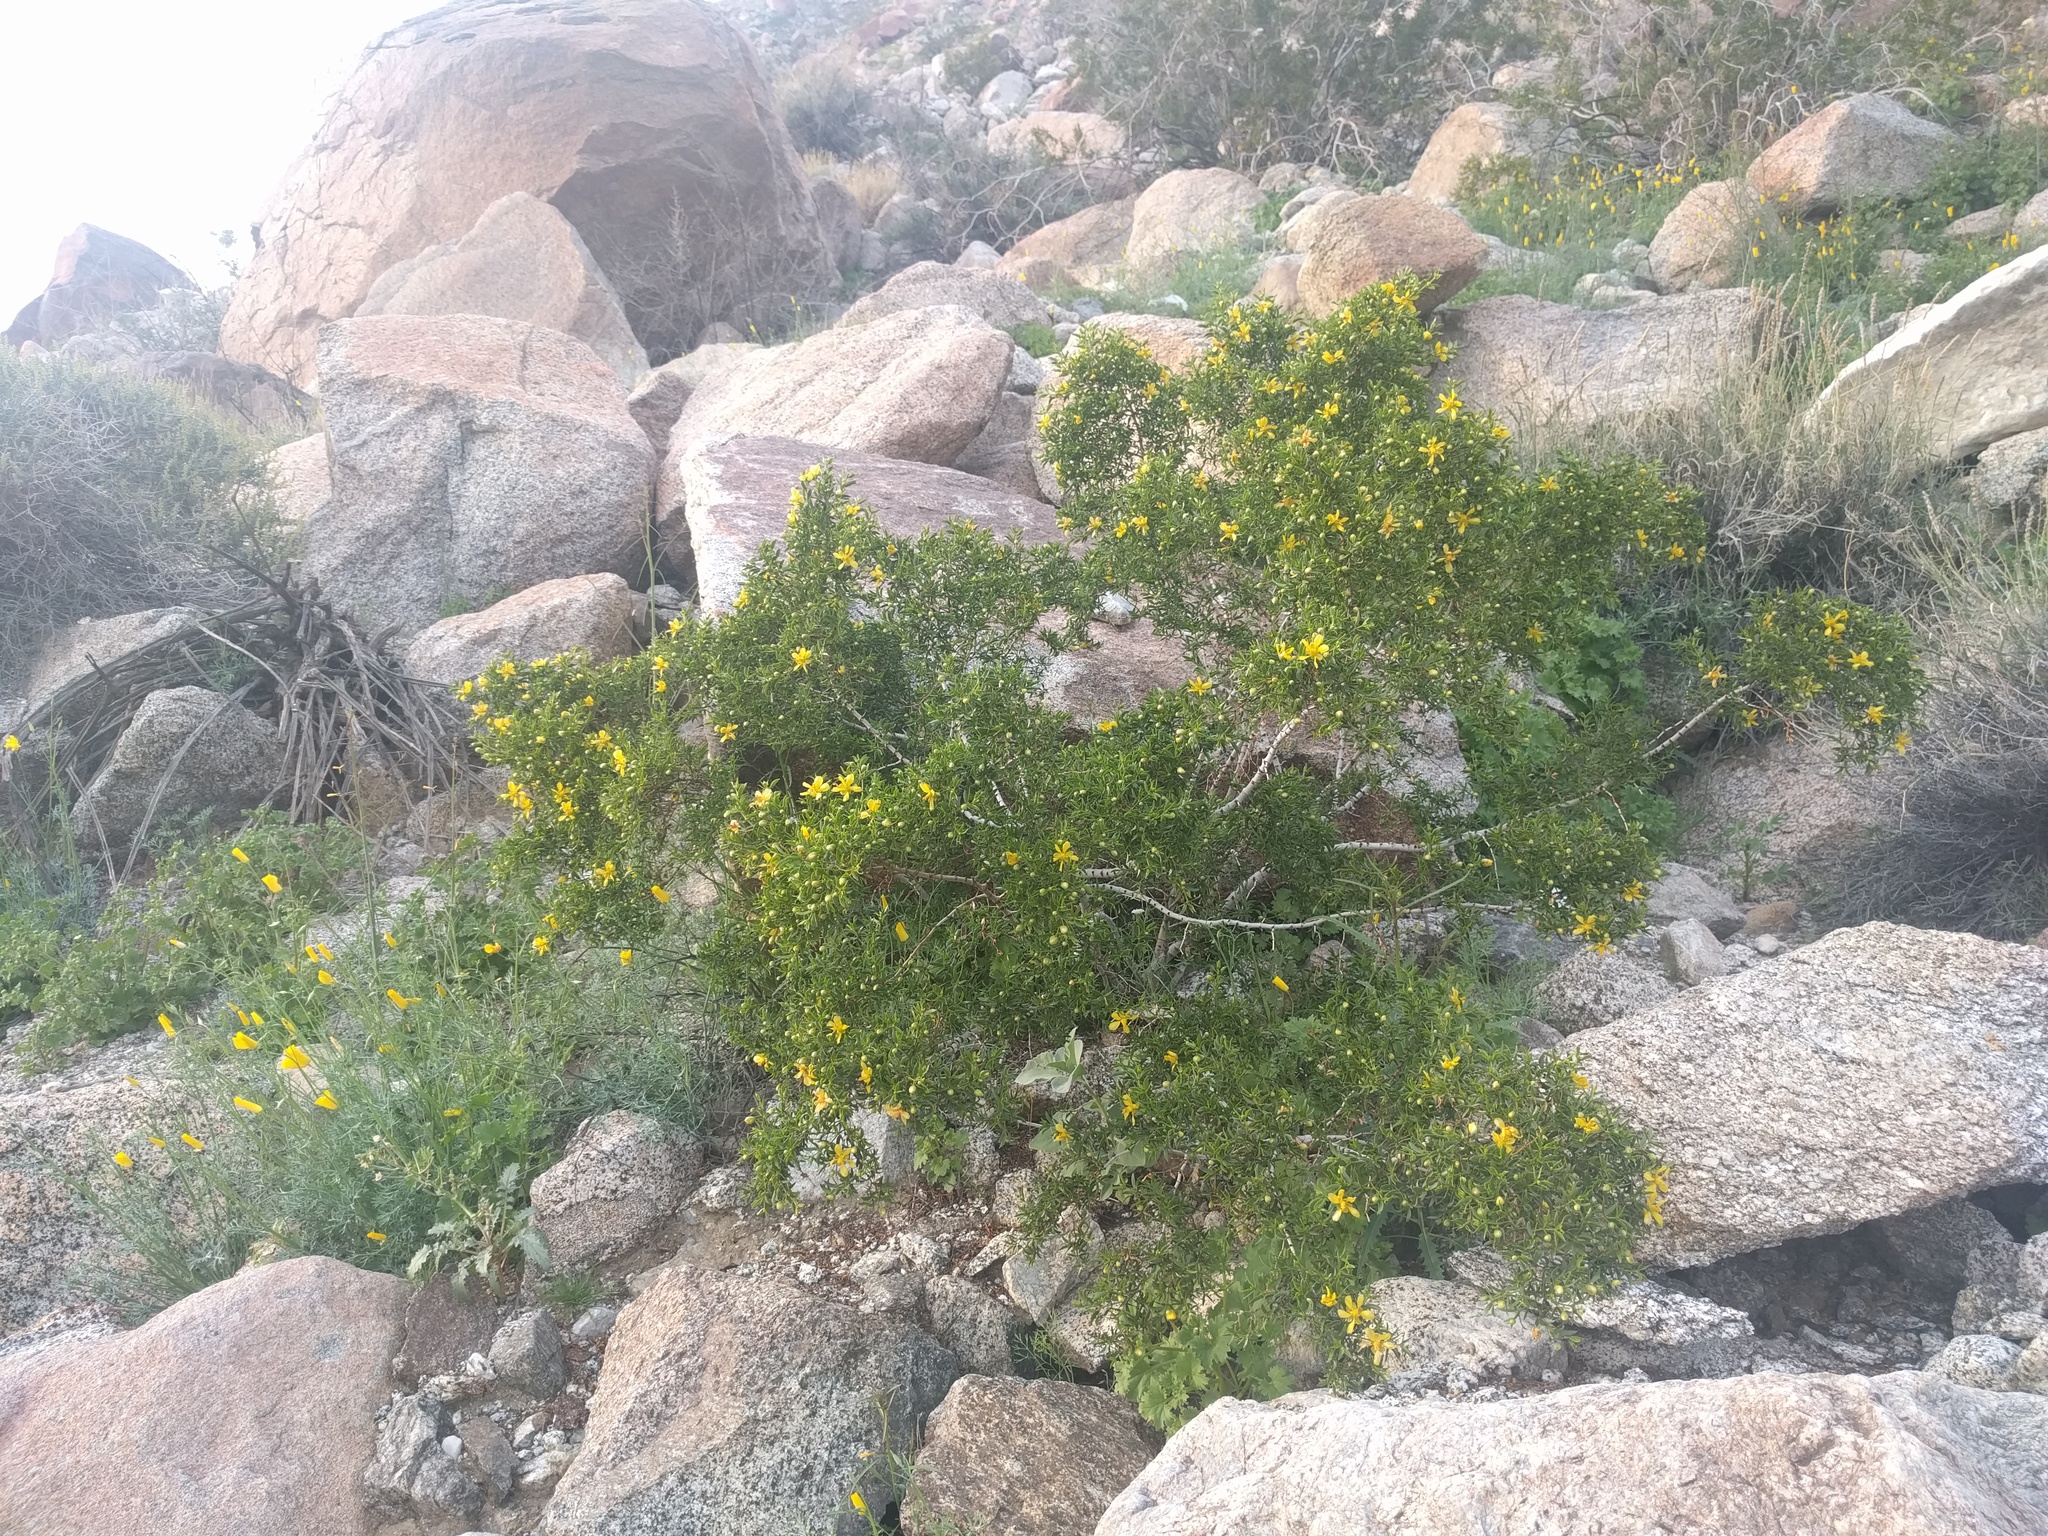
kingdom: Plantae
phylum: Tracheophyta
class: Magnoliopsida
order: Zygophyllales
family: Zygophyllaceae
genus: Larrea
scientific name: Larrea tridentata
